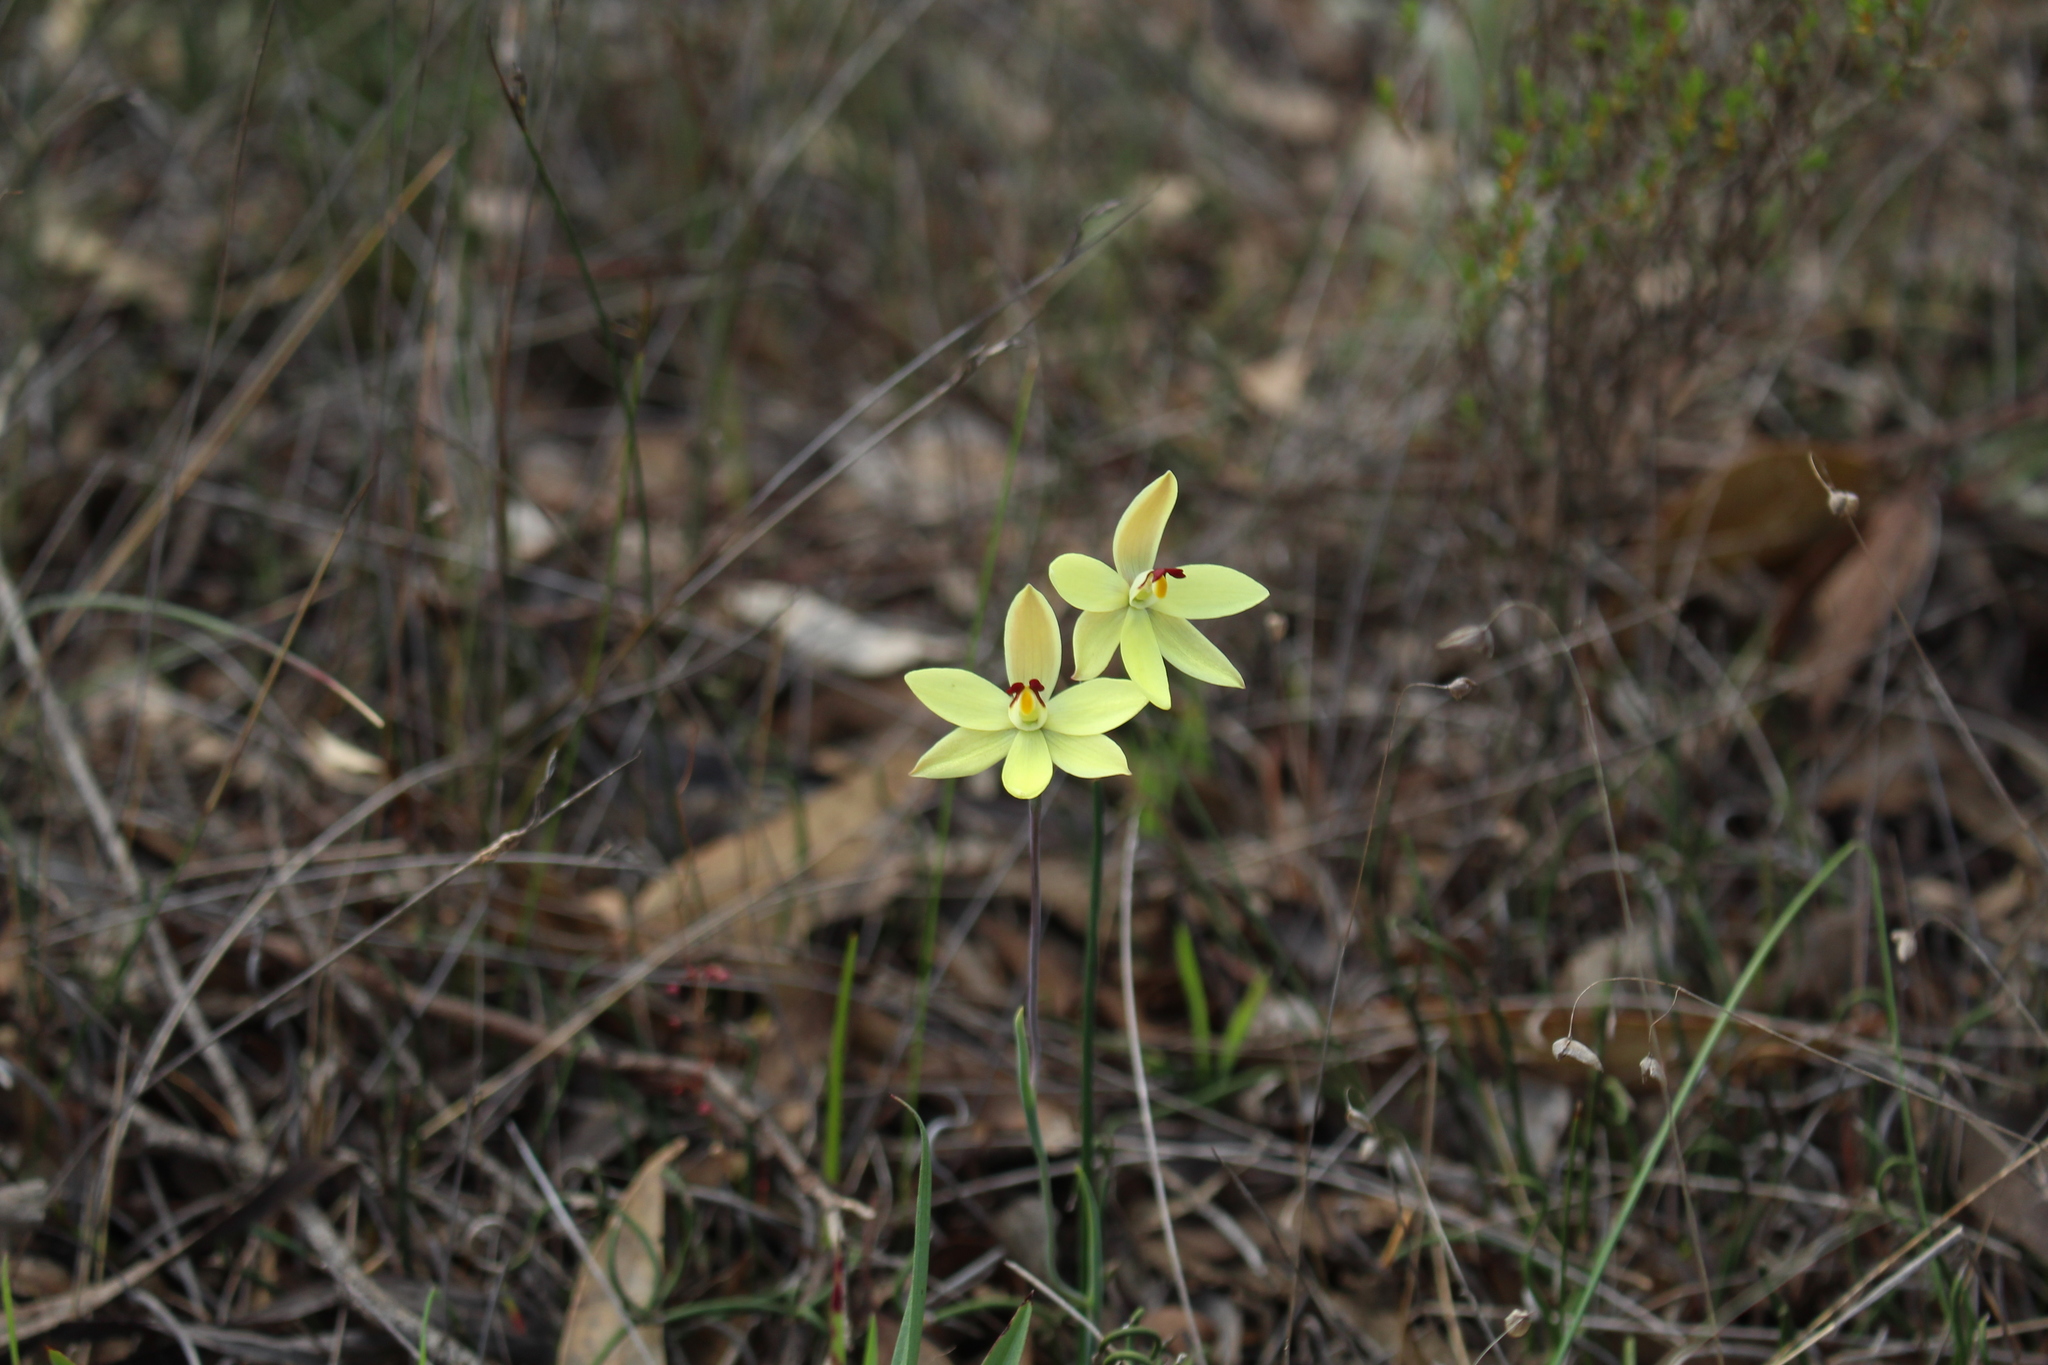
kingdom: Plantae
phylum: Tracheophyta
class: Liliopsida
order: Asparagales
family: Orchidaceae
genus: Thelymitra
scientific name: Thelymitra antennifera
